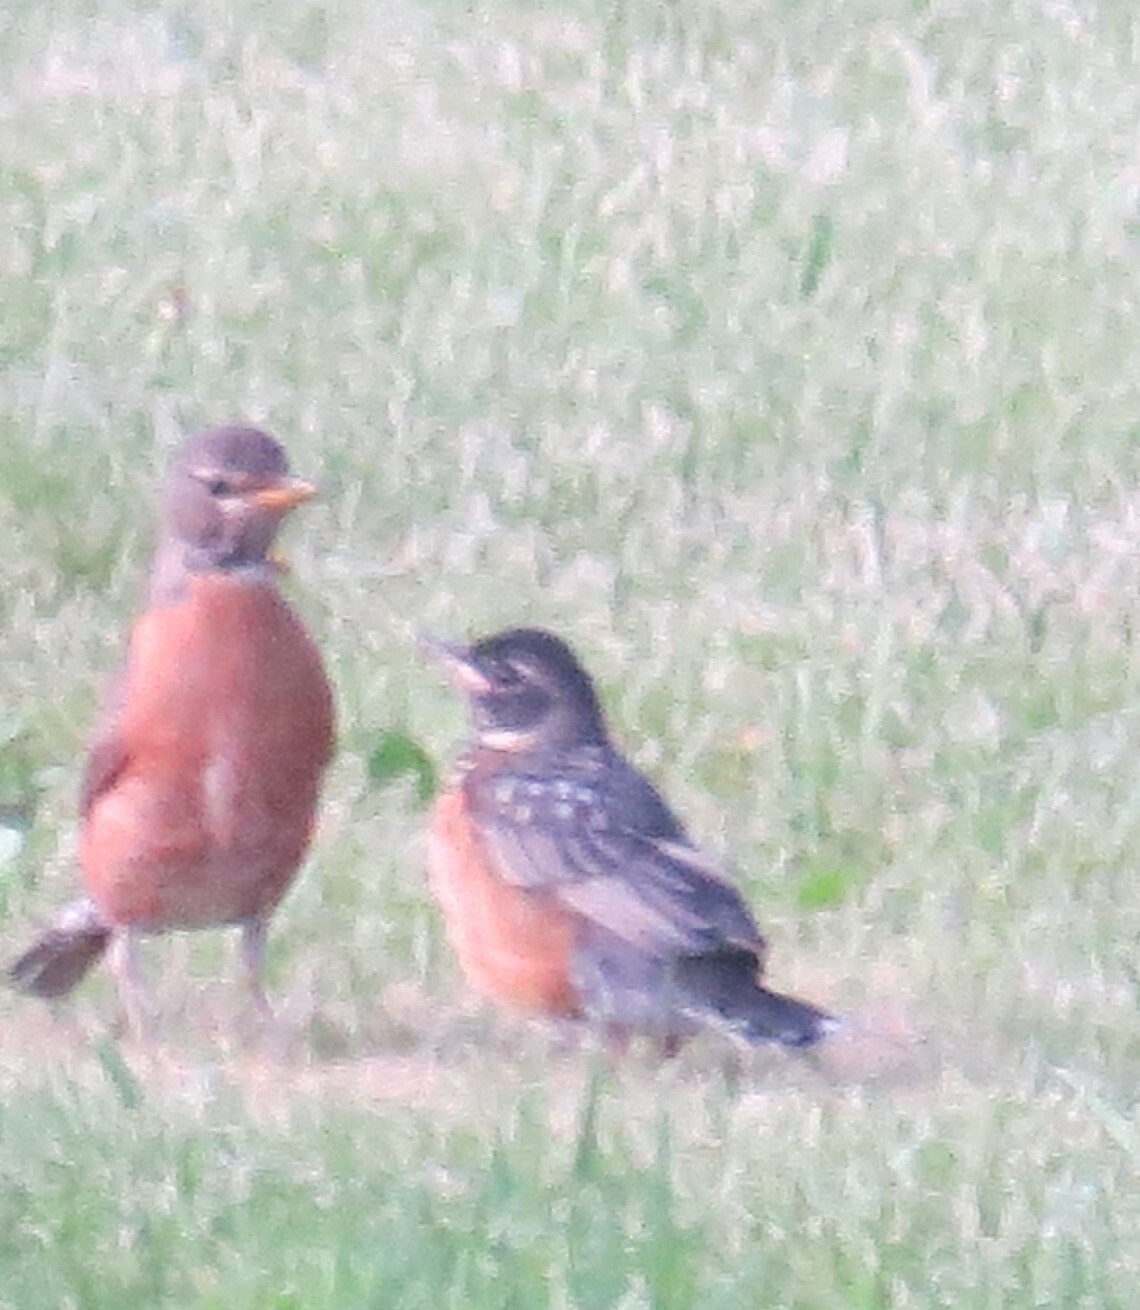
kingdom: Animalia
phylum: Chordata
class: Aves
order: Passeriformes
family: Turdidae
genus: Turdus
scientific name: Turdus migratorius
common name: American robin
